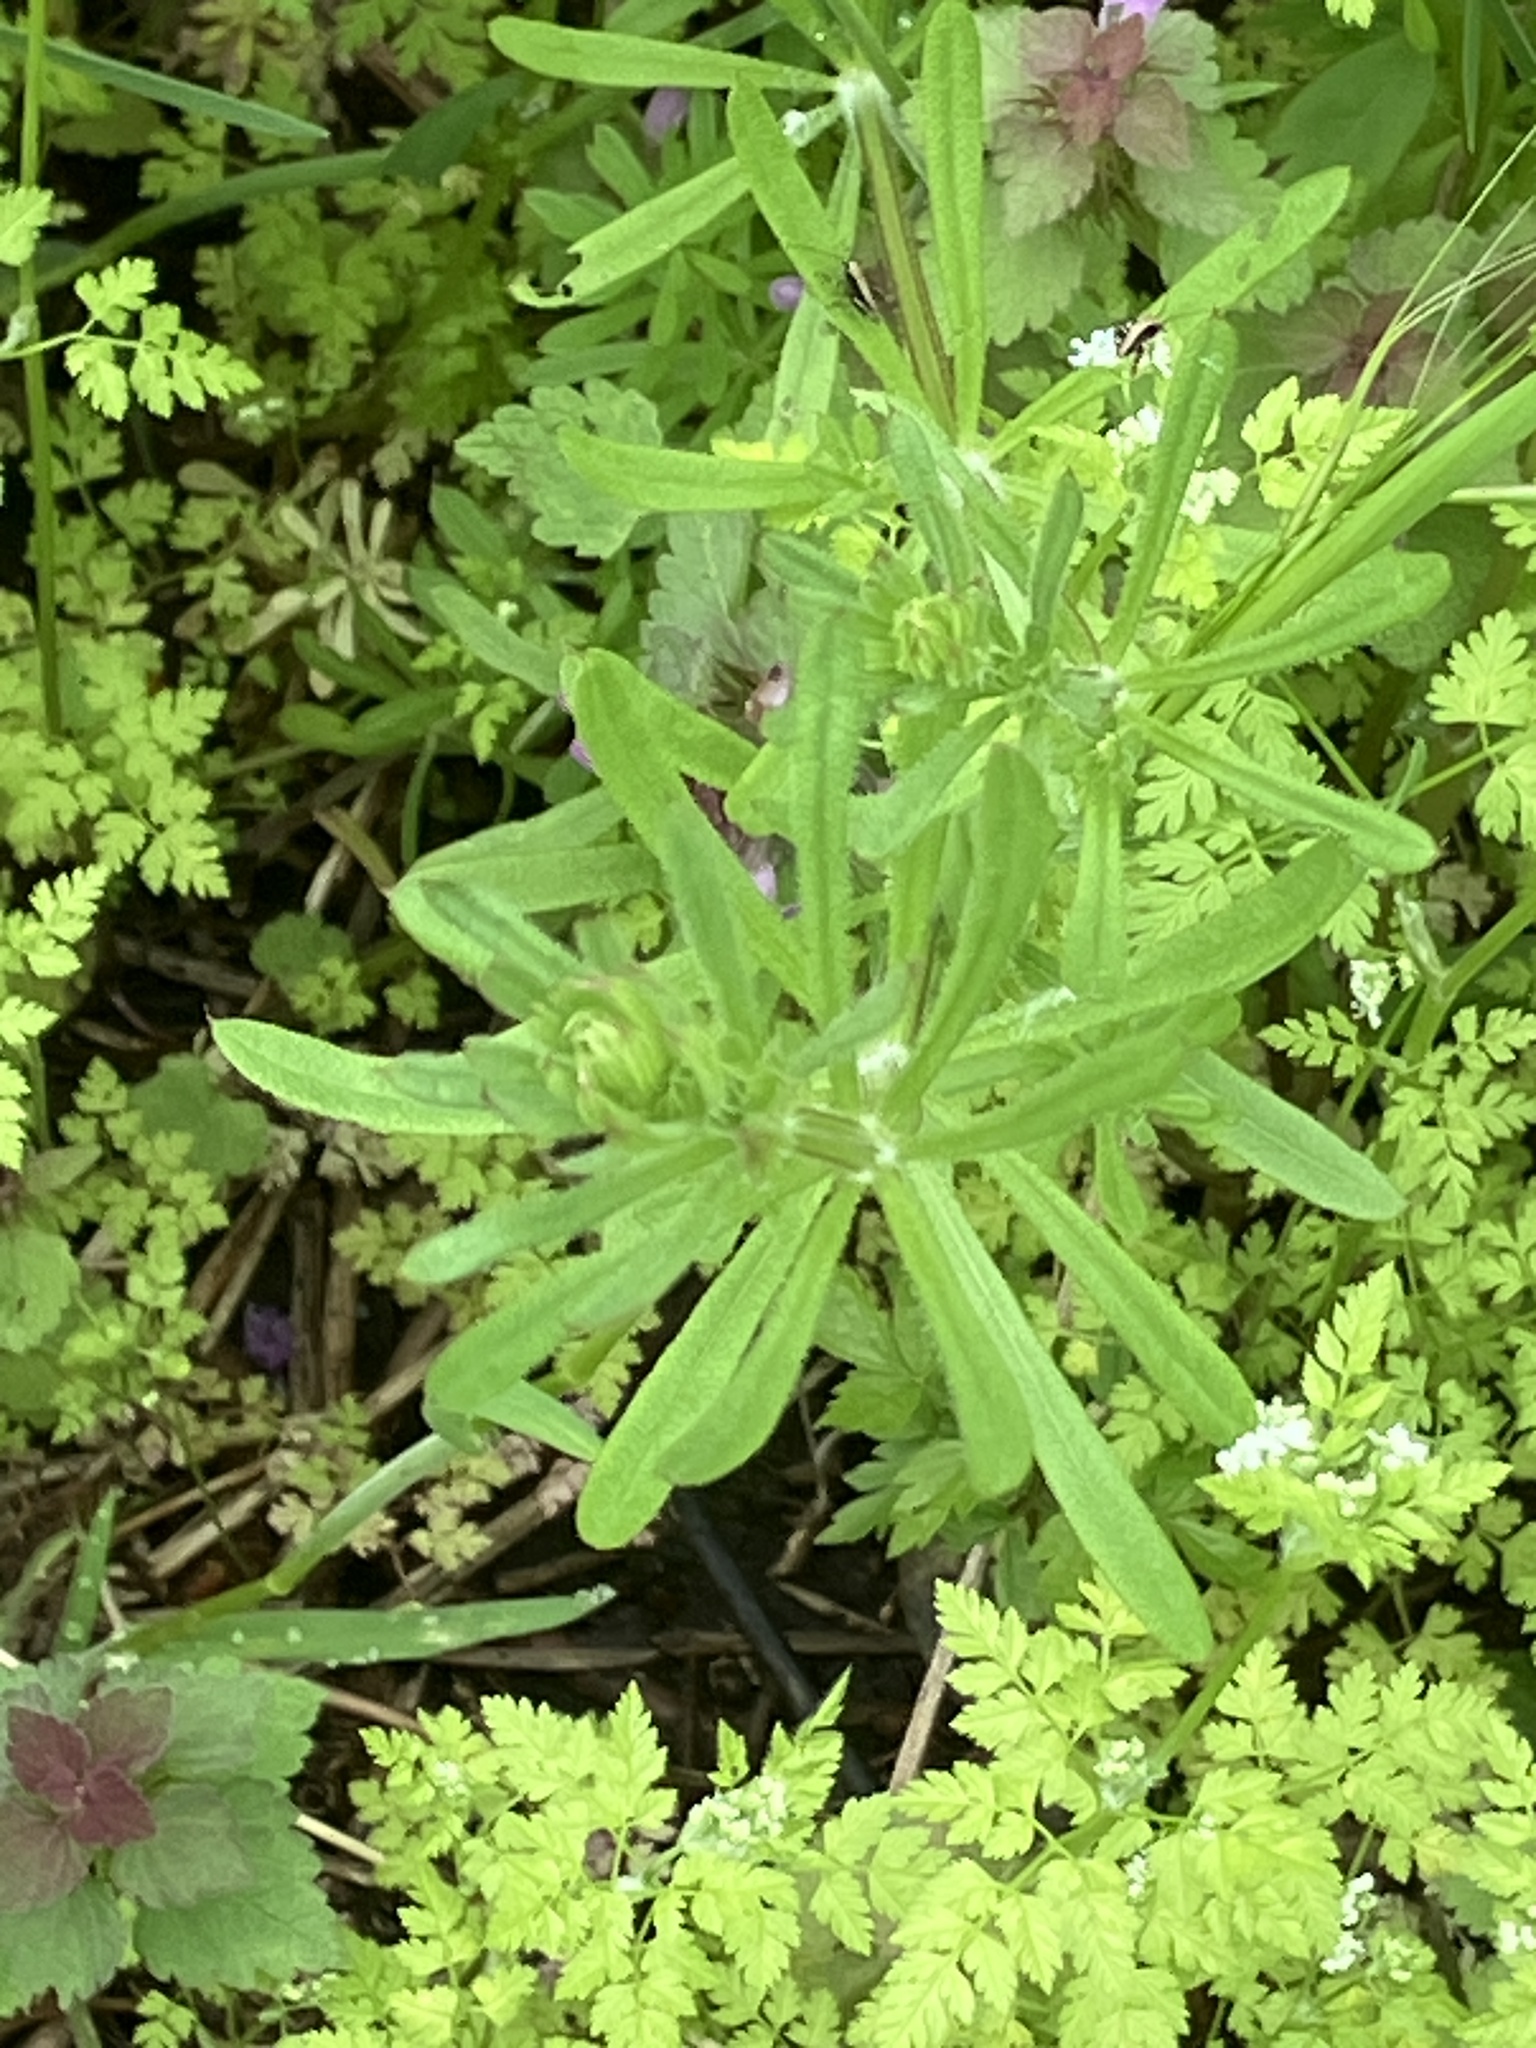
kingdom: Plantae
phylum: Tracheophyta
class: Magnoliopsida
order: Gentianales
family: Rubiaceae
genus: Galium
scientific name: Galium aparine
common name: Cleavers
